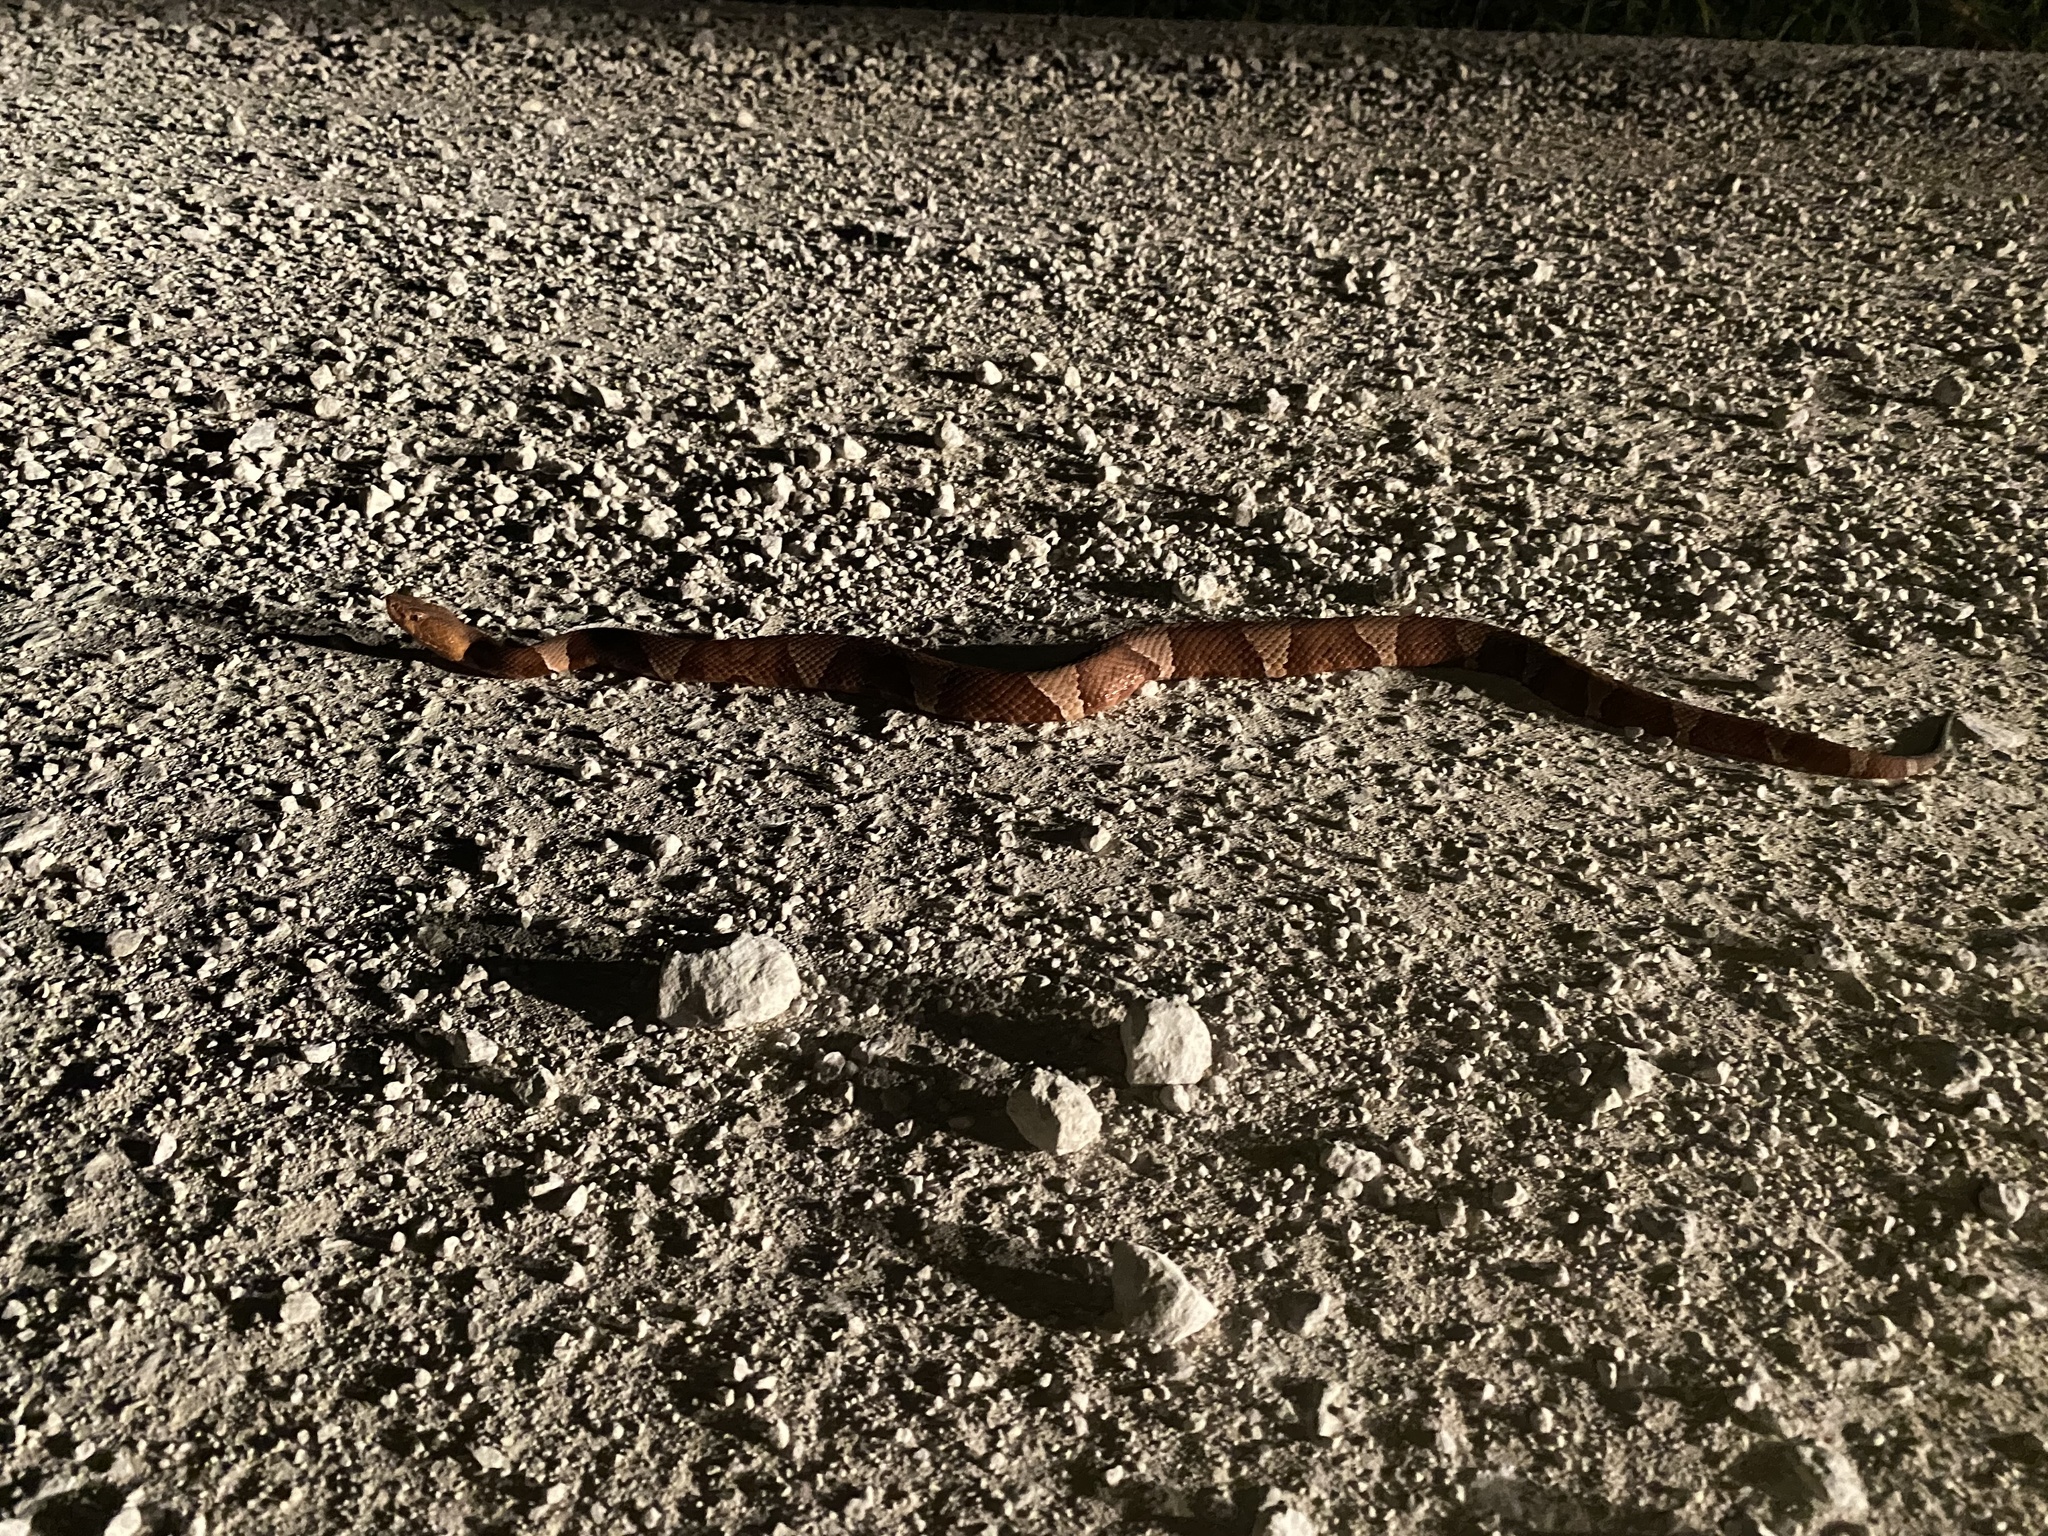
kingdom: Animalia
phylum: Chordata
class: Squamata
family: Viperidae
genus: Agkistrodon
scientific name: Agkistrodon laticinctus
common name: Broad-banded copperhead
